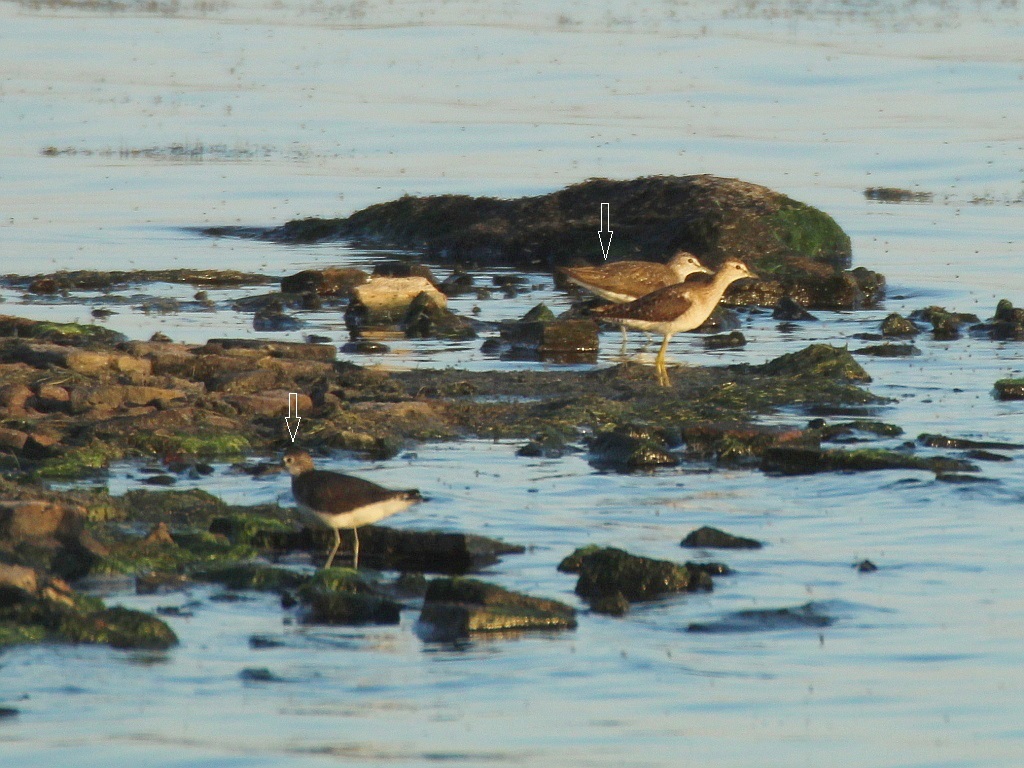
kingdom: Animalia
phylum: Chordata
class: Aves
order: Charadriiformes
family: Scolopacidae
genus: Tringa
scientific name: Tringa ochropus
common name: Green sandpiper
